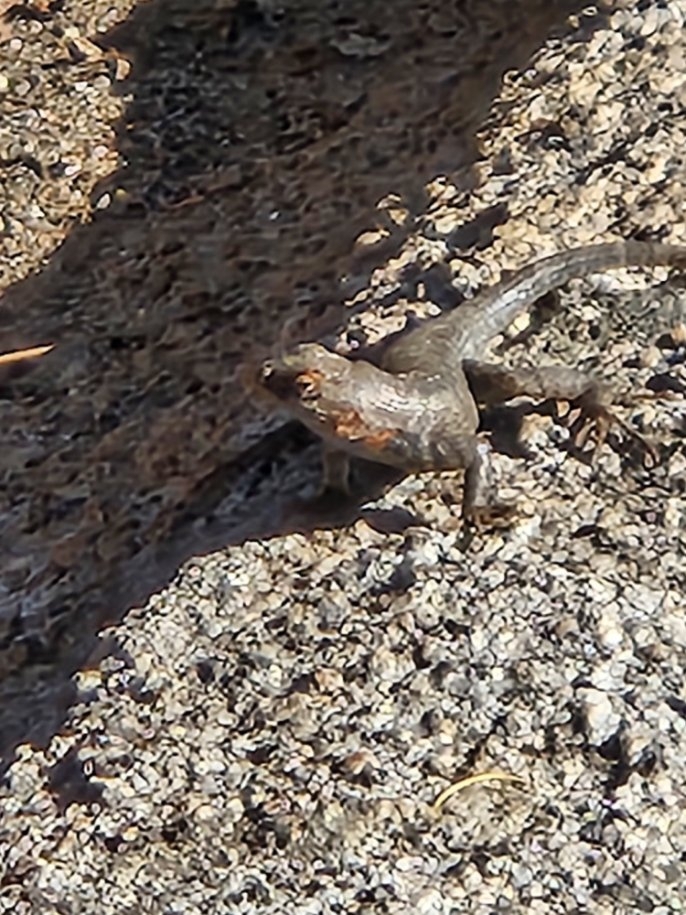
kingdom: Animalia
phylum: Chordata
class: Squamata
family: Phrynosomatidae
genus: Sceloporus
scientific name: Sceloporus graciosus
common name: Sagebrush lizard
